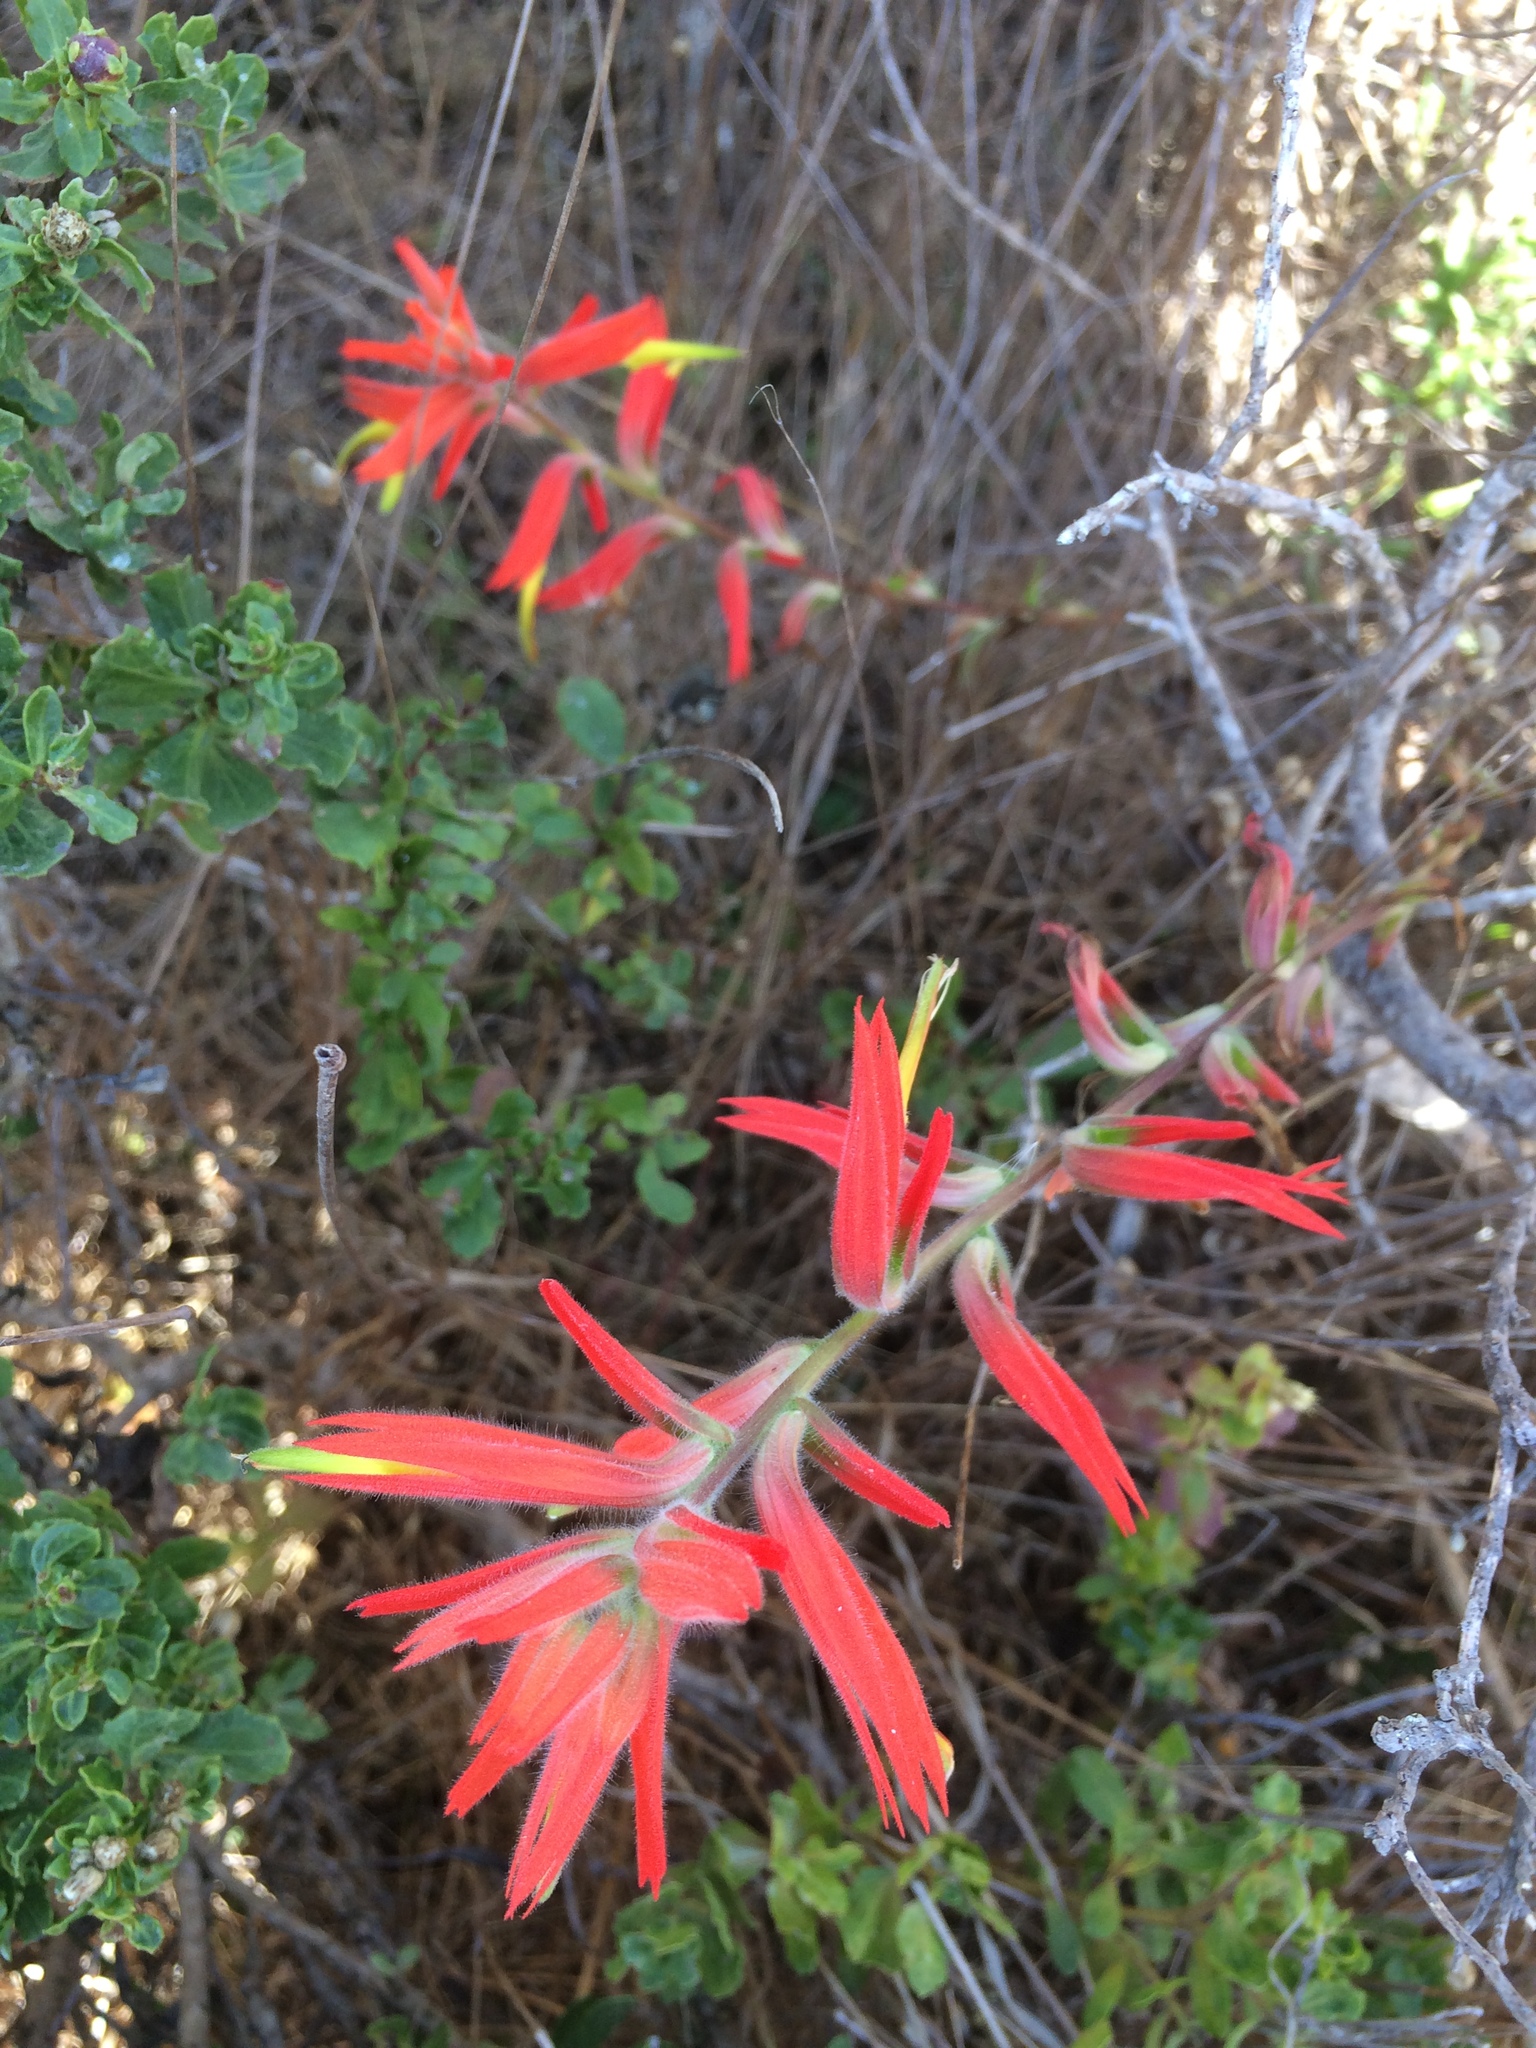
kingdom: Plantae
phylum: Tracheophyta
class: Magnoliopsida
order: Lamiales
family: Orobanchaceae
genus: Castilleja
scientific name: Castilleja subinclusa
